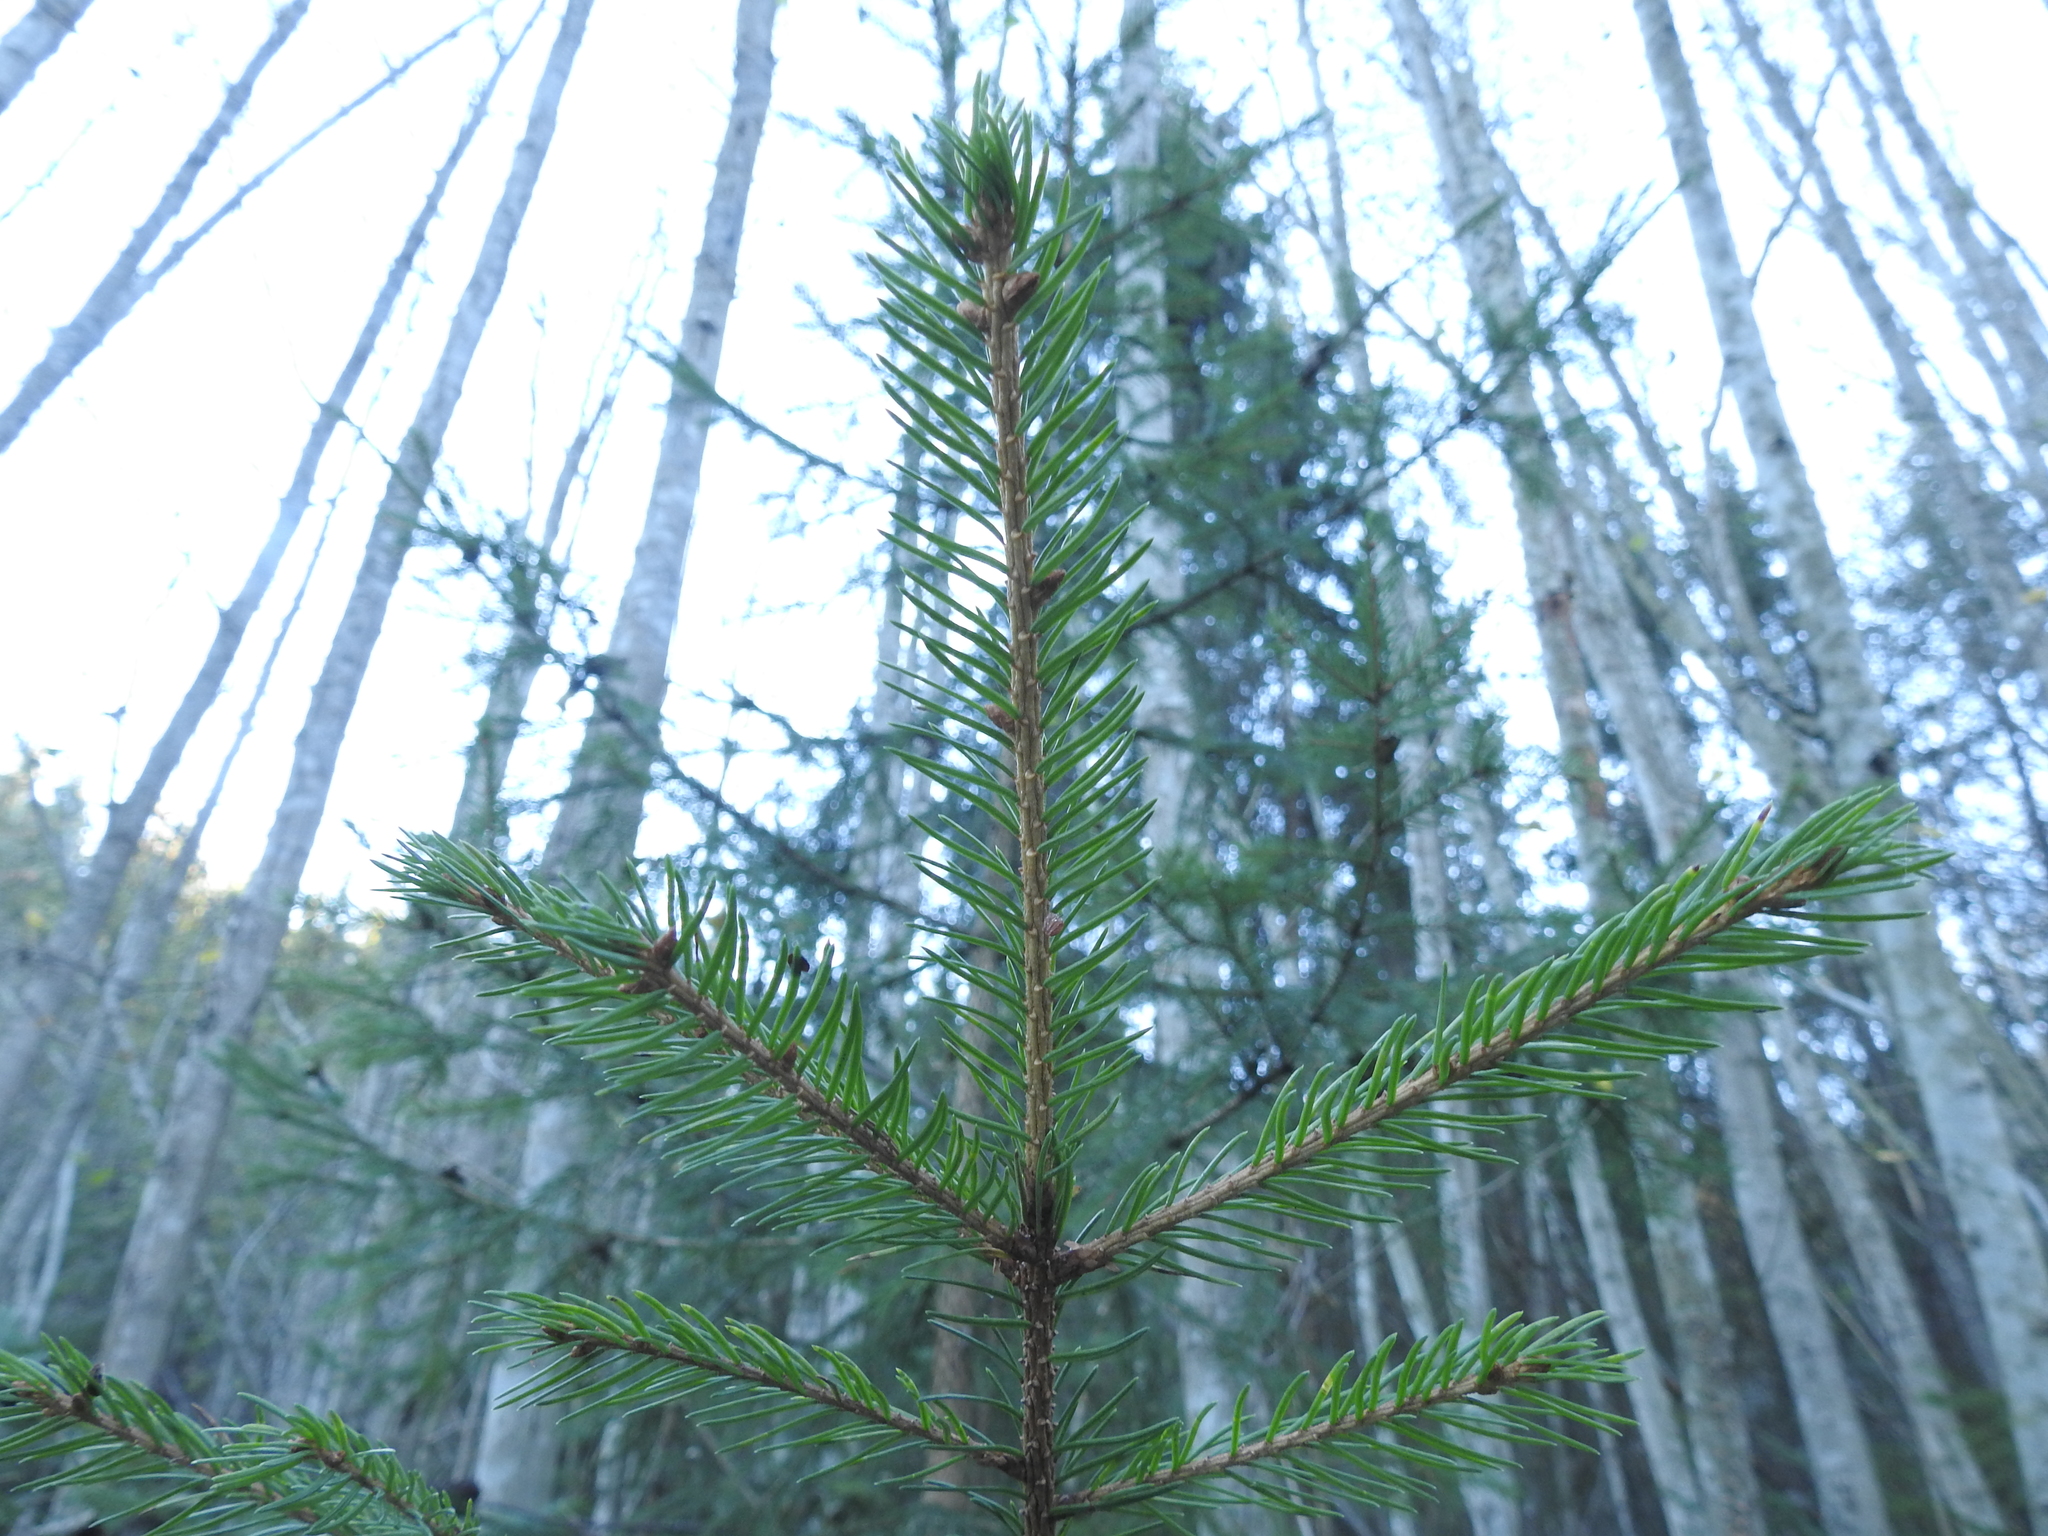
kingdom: Plantae
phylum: Tracheophyta
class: Pinopsida
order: Pinales
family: Pinaceae
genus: Picea
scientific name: Picea abies
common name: Norway spruce
